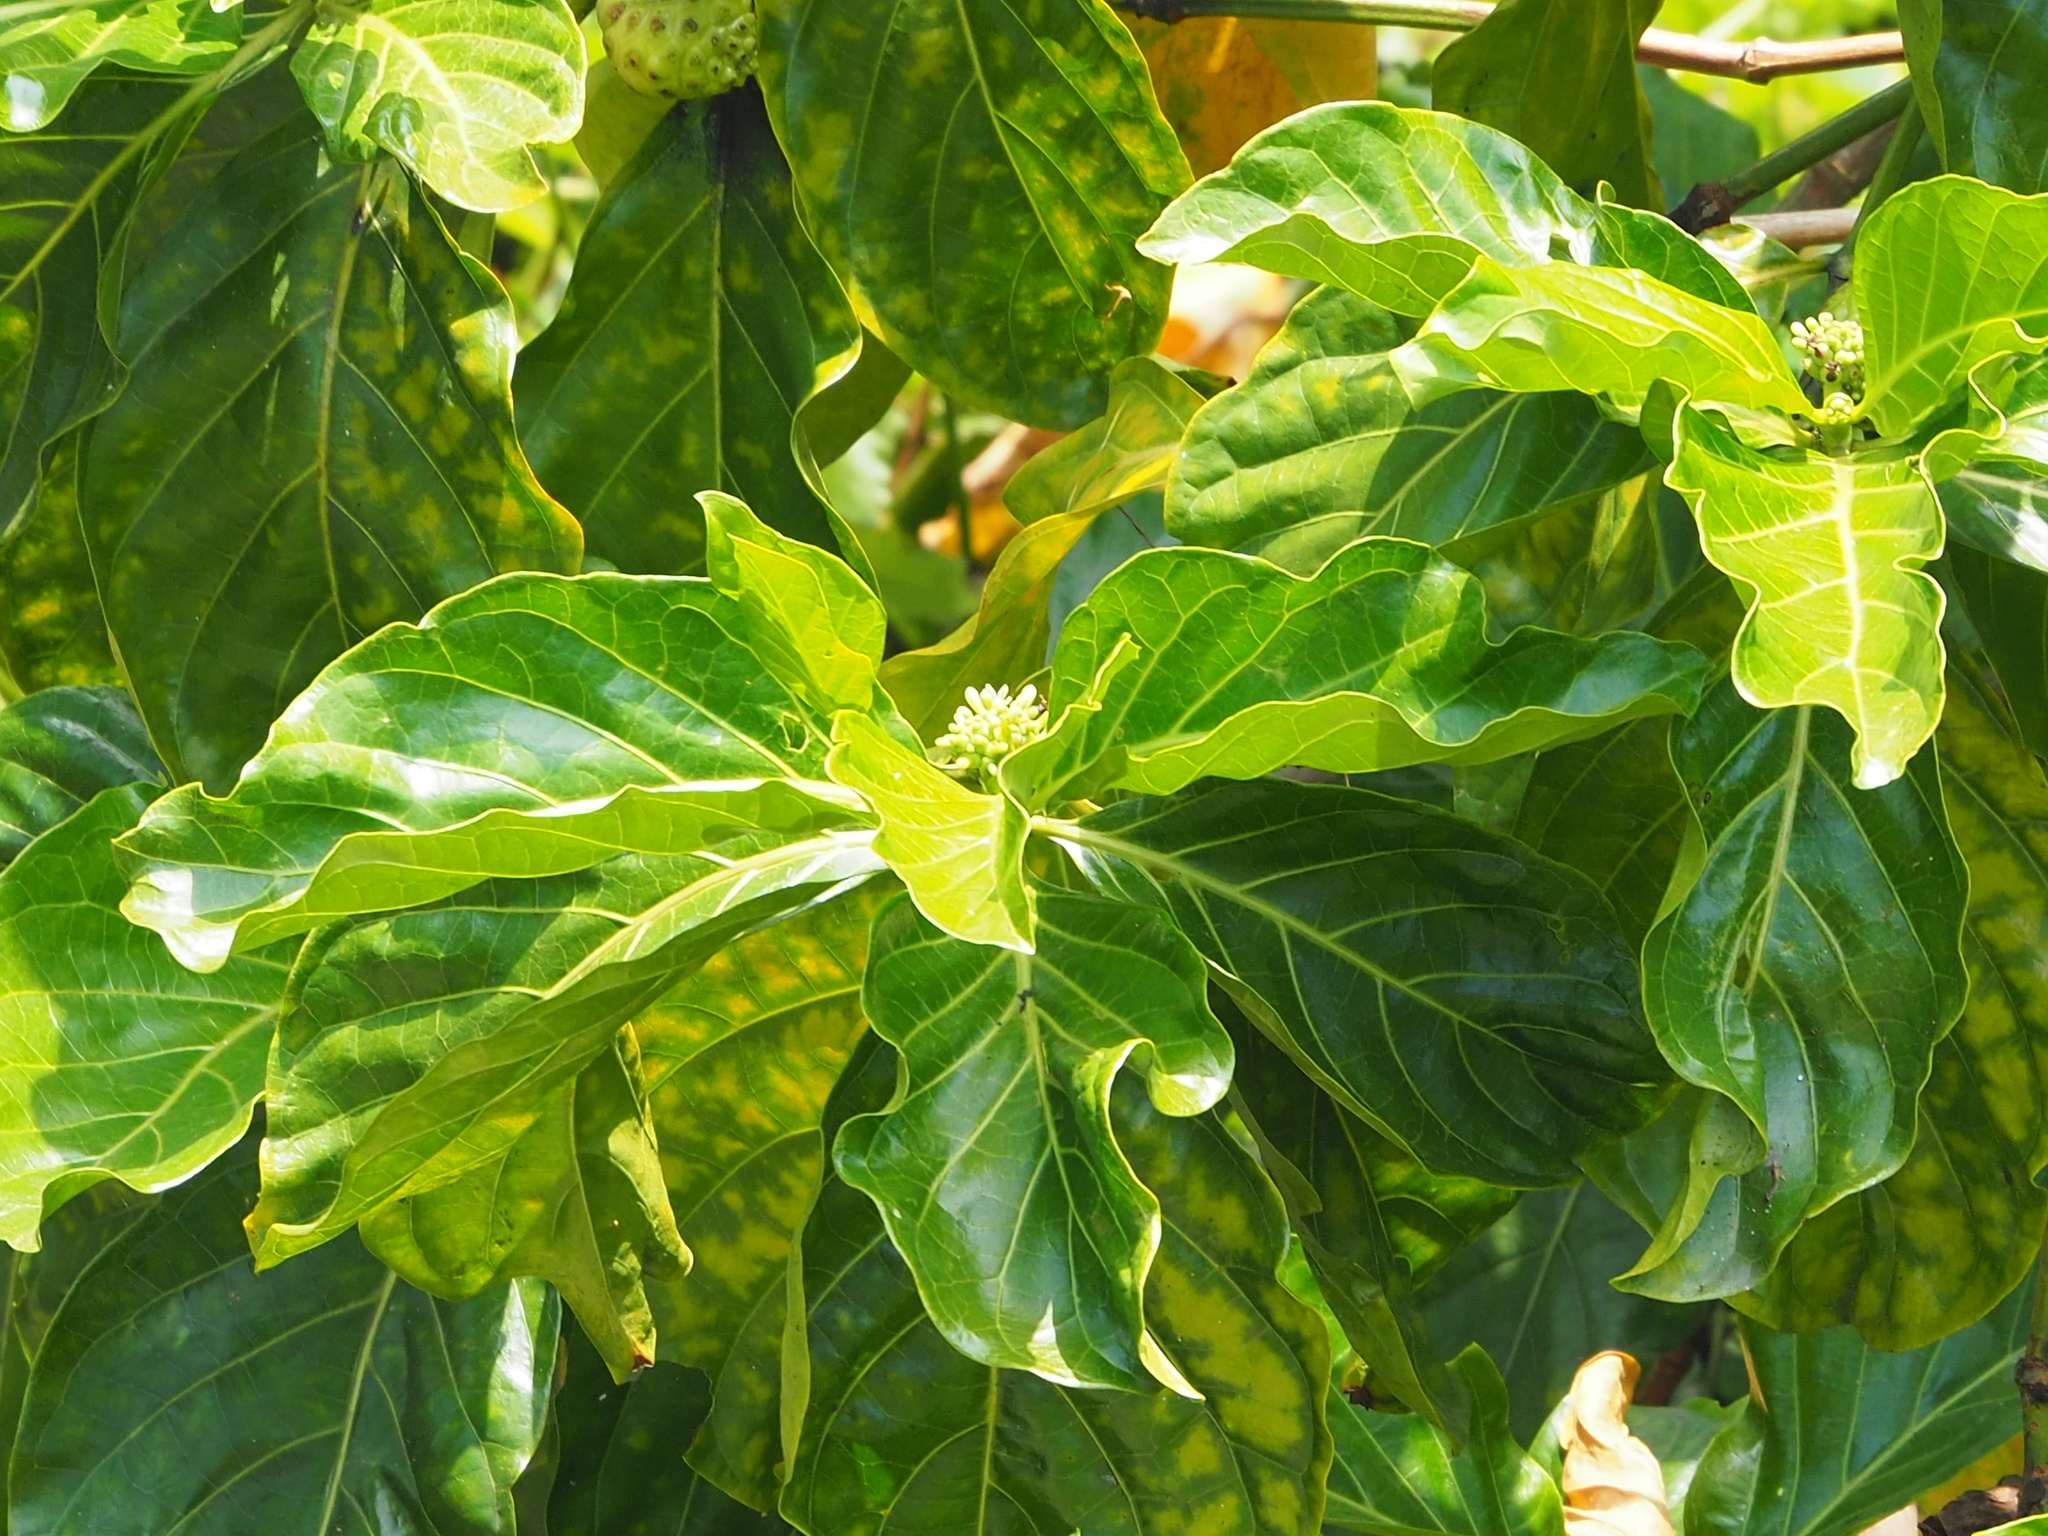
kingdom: Plantae
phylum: Tracheophyta
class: Magnoliopsida
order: Gentianales
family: Rubiaceae
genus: Morinda
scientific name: Morinda citrifolia
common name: Indian-mulberry
